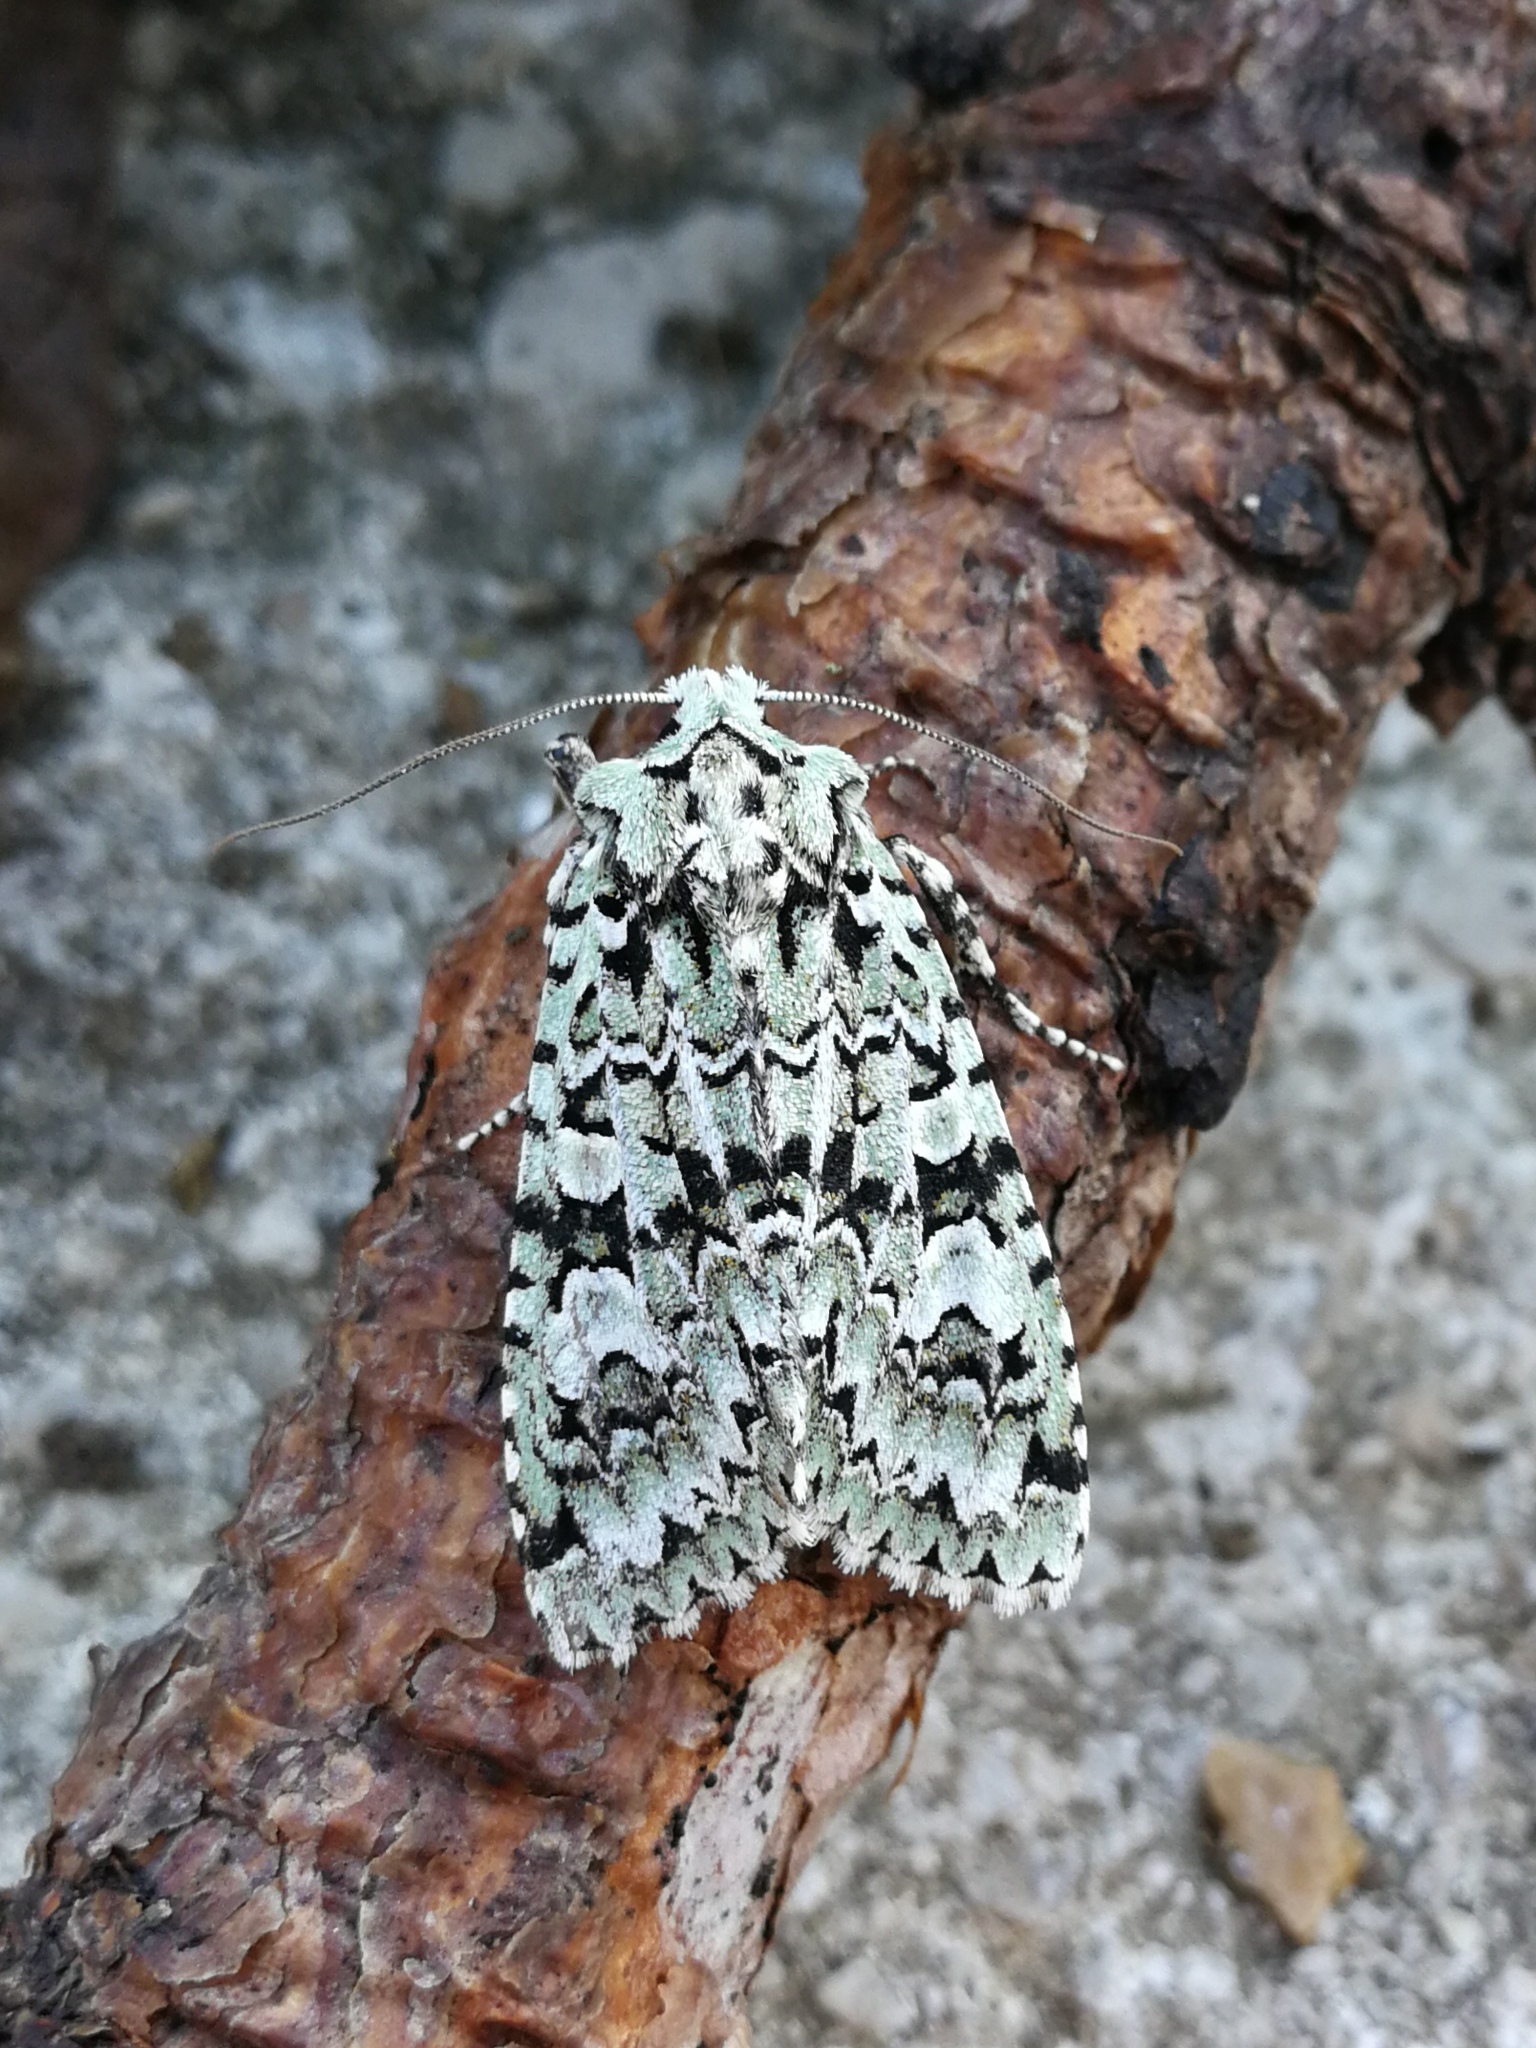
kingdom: Animalia
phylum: Arthropoda
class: Insecta
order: Lepidoptera
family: Noctuidae
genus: Griposia
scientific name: Griposia aprilina
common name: Merveille du jour
